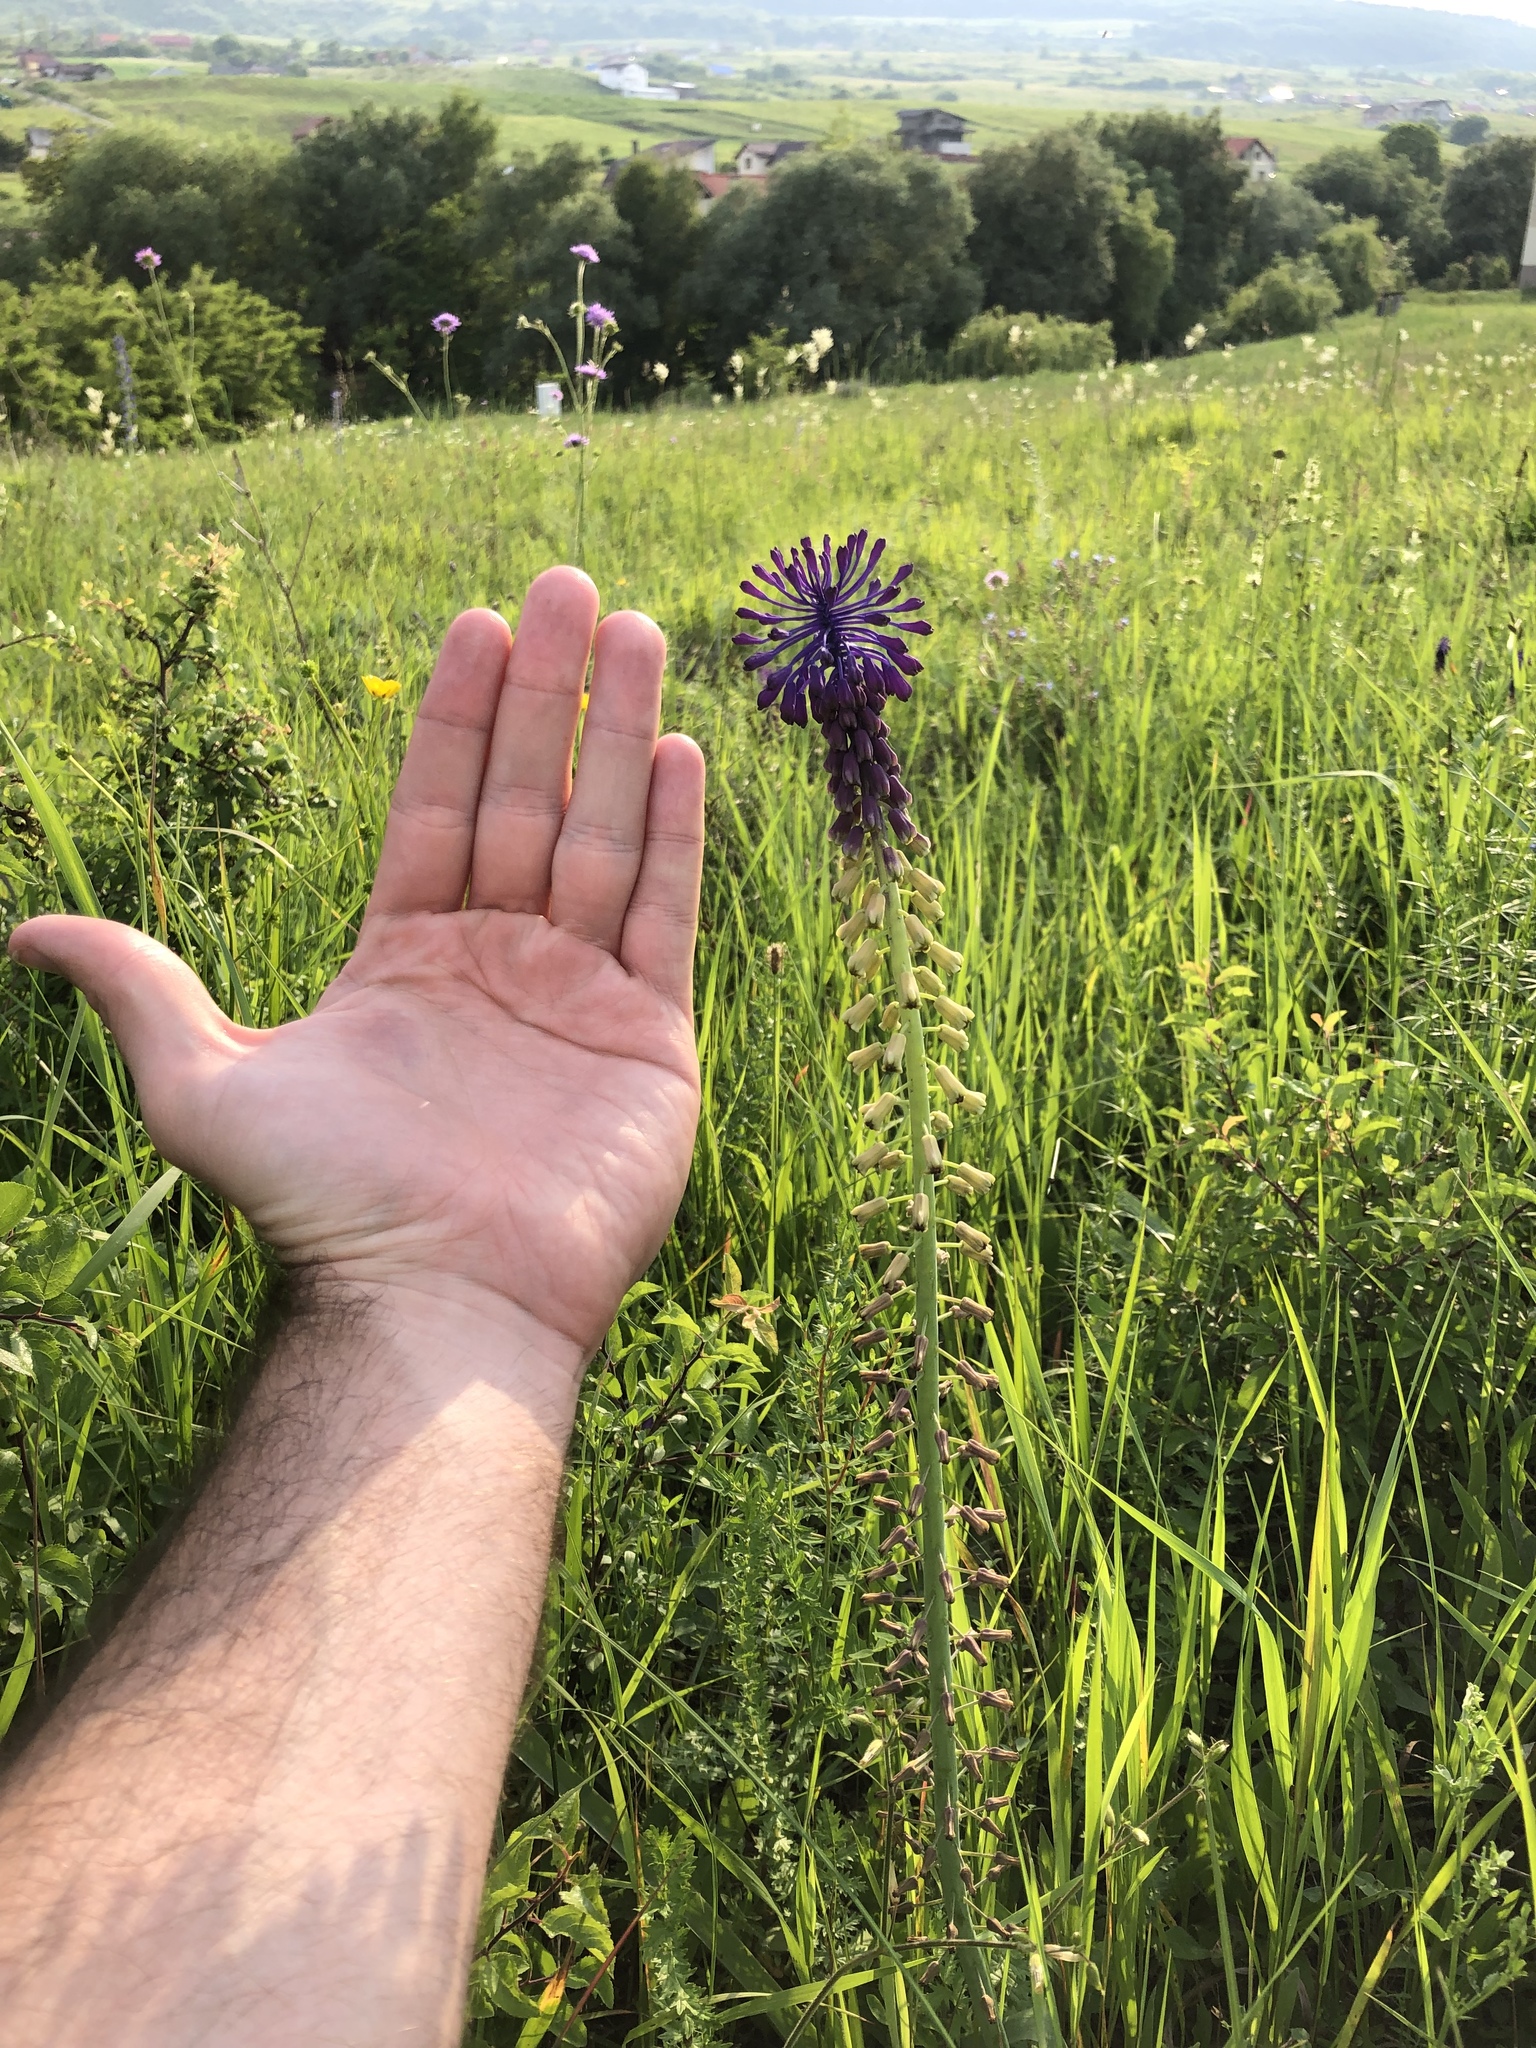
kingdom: Plantae
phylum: Tracheophyta
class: Liliopsida
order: Asparagales
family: Asparagaceae
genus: Muscari
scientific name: Muscari tenuiflorum
